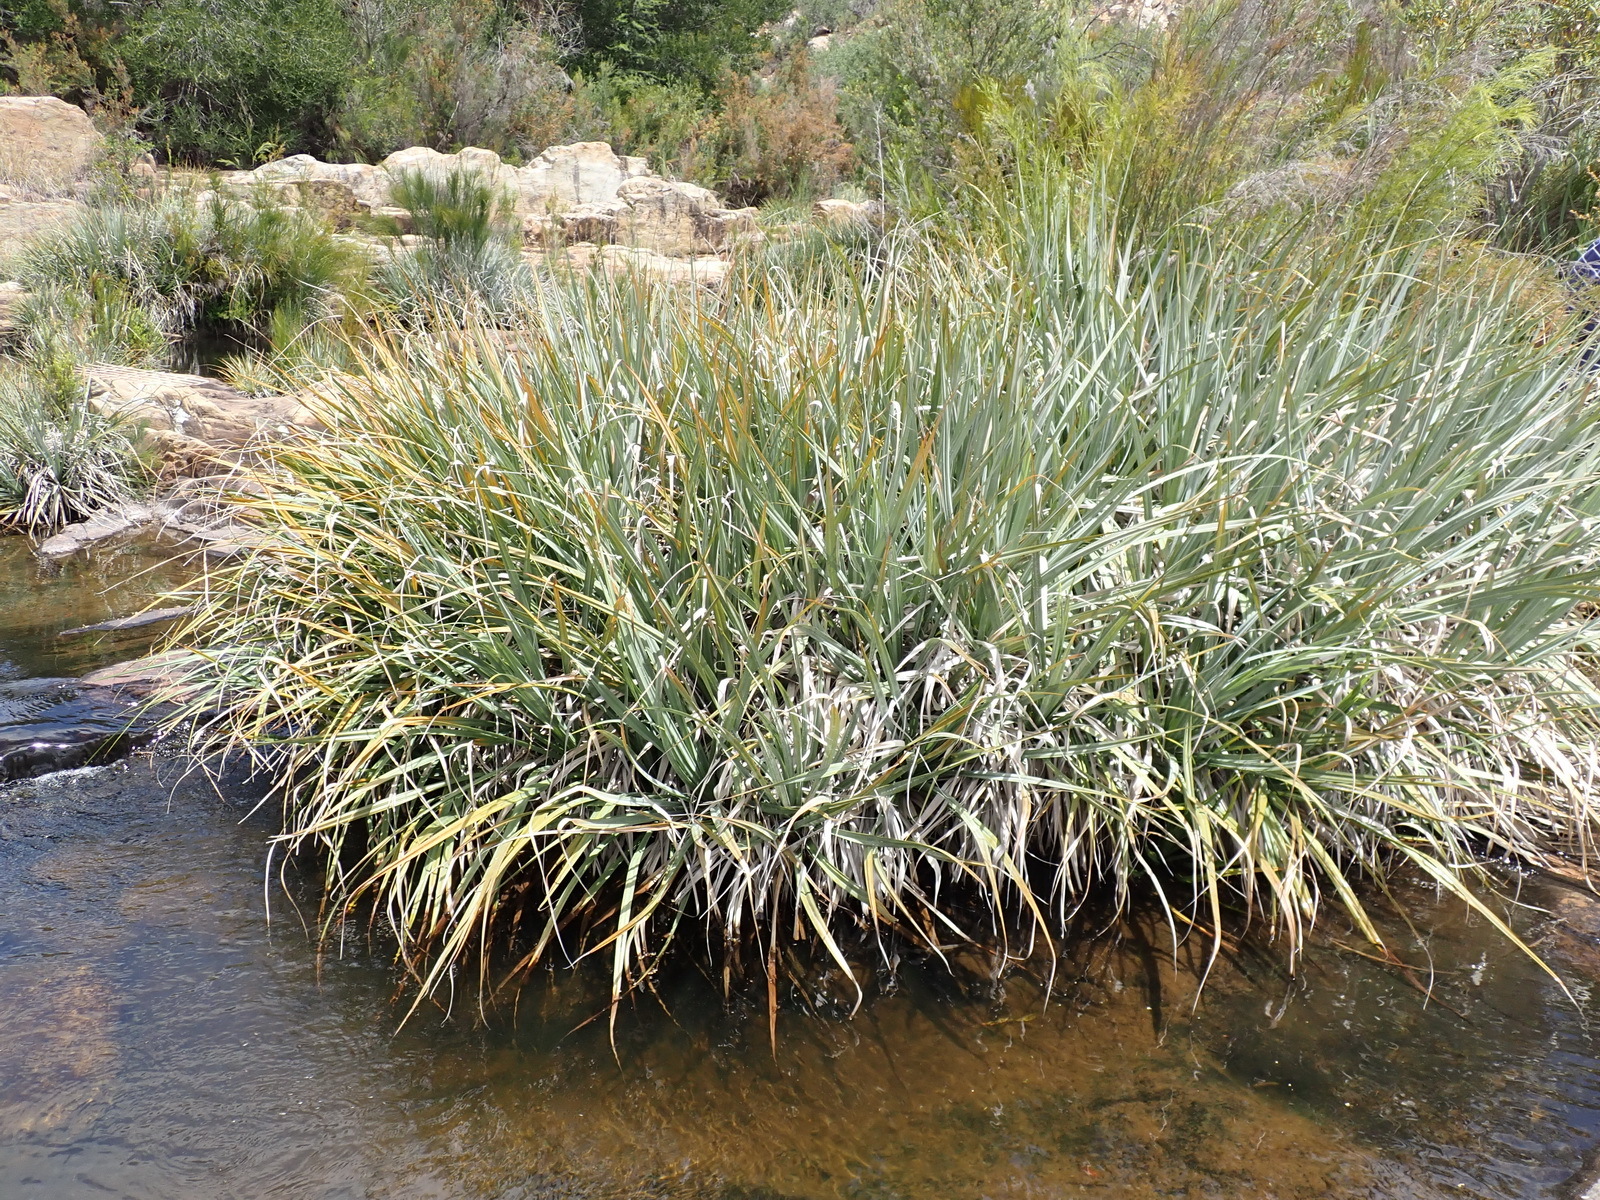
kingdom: Plantae
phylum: Tracheophyta
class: Liliopsida
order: Poales
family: Thurniaceae
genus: Prionium
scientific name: Prionium serratum
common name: Palmiet
